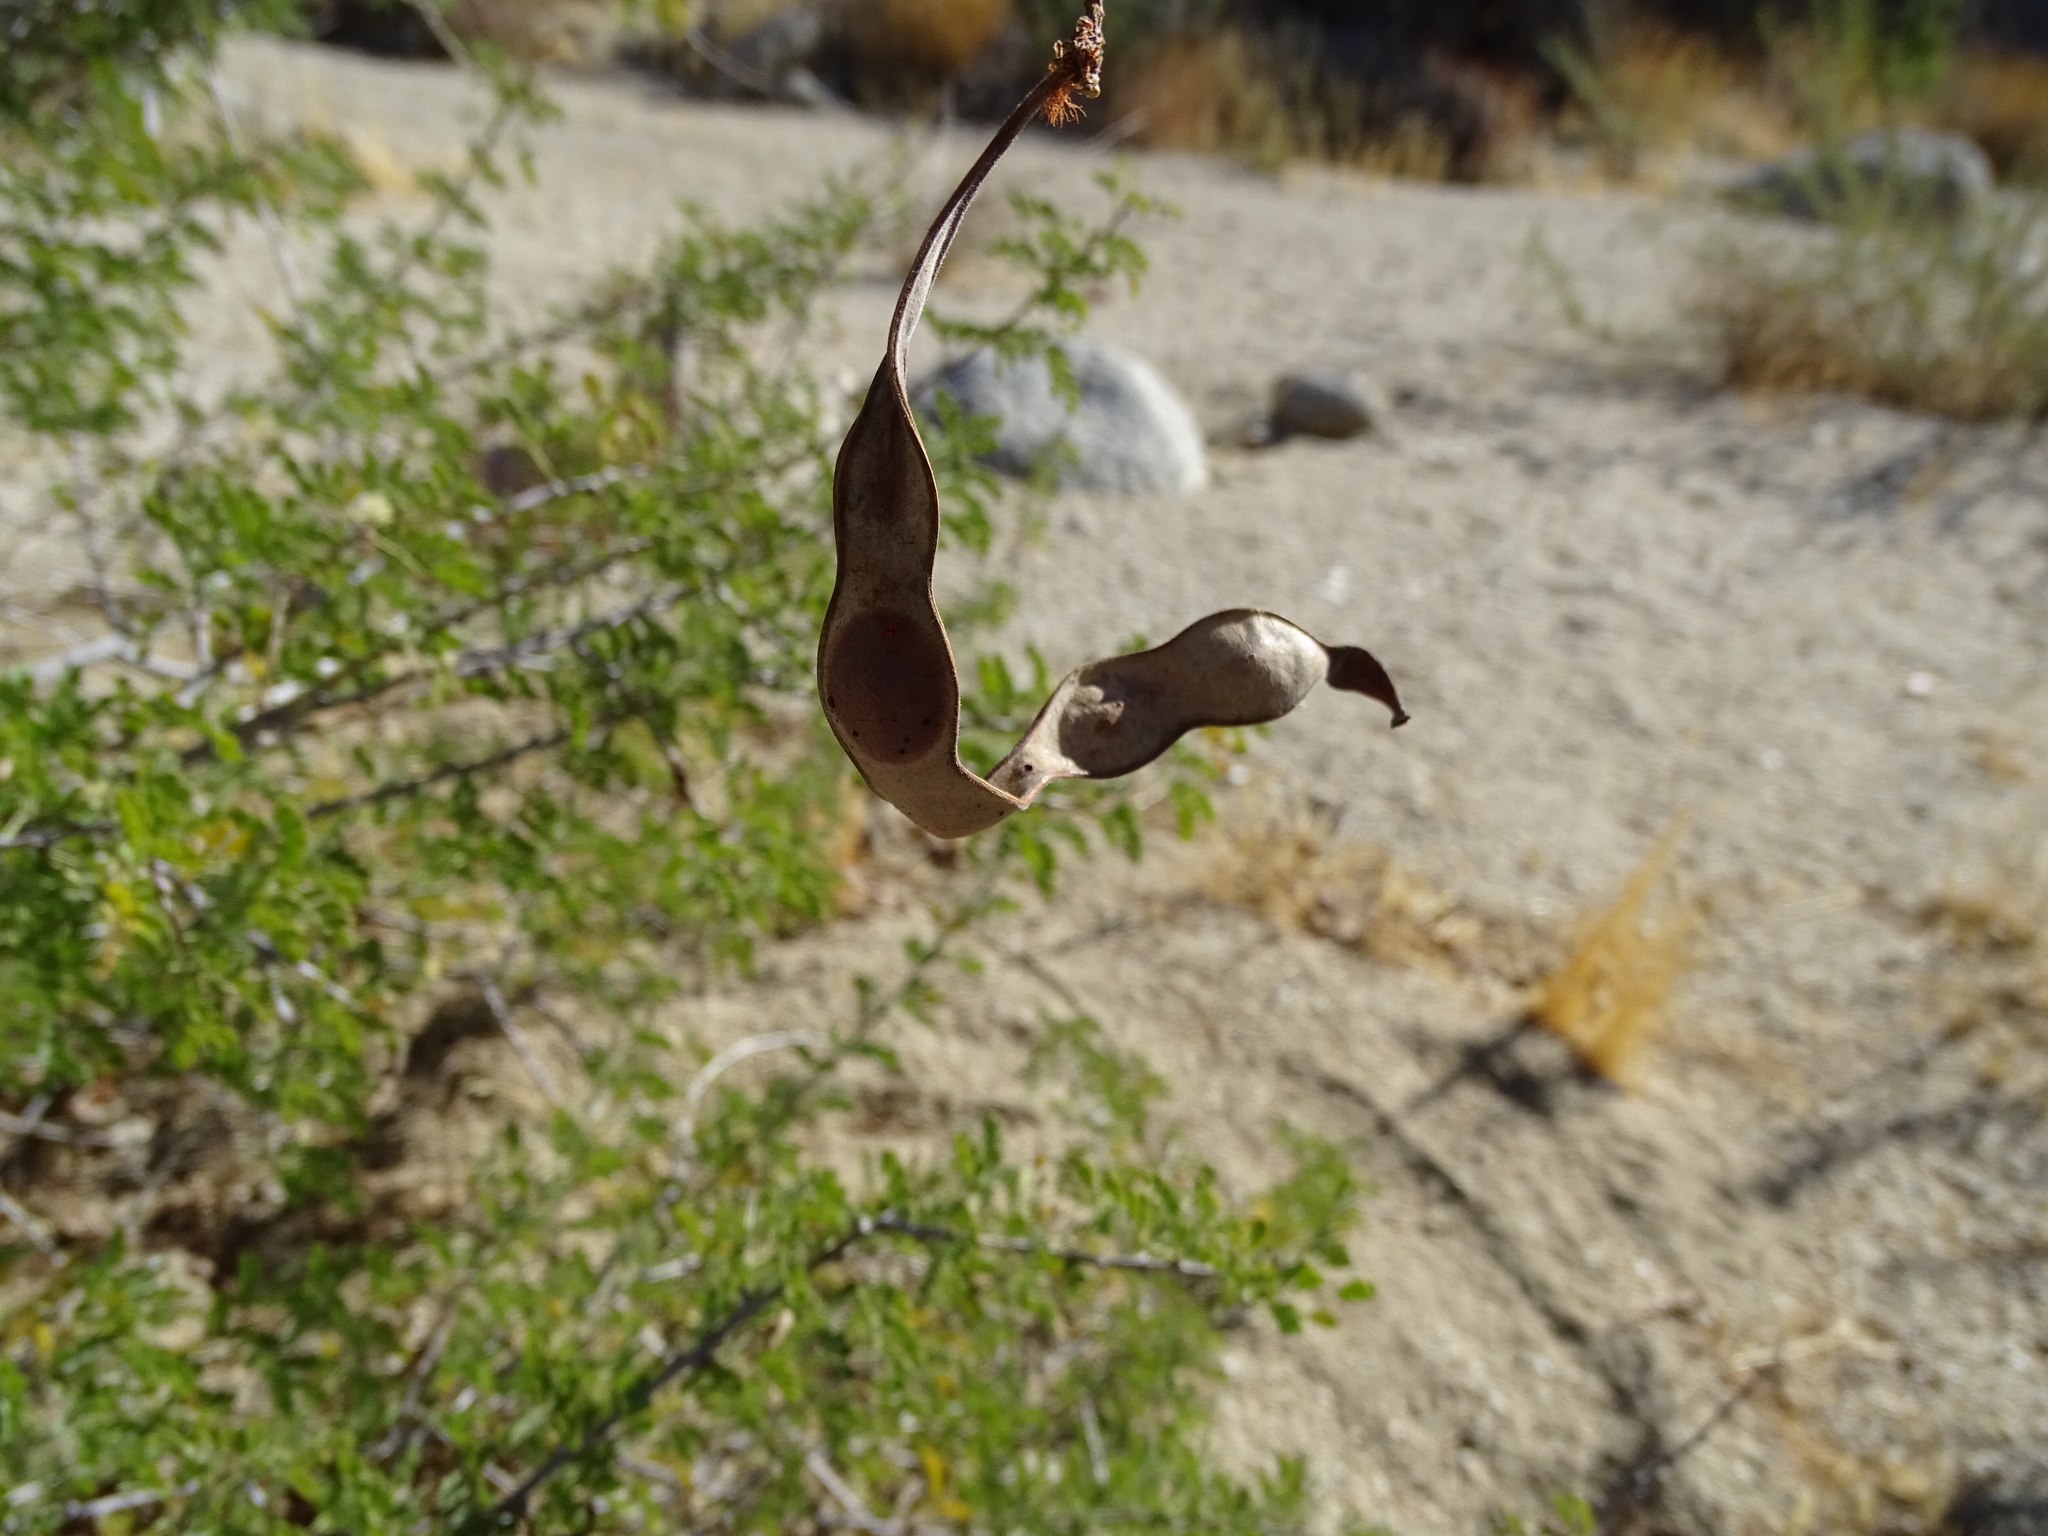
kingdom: Plantae
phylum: Tracheophyta
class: Magnoliopsida
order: Fabales
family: Fabaceae
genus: Senegalia
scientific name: Senegalia greggii
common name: Texas-mimosa
